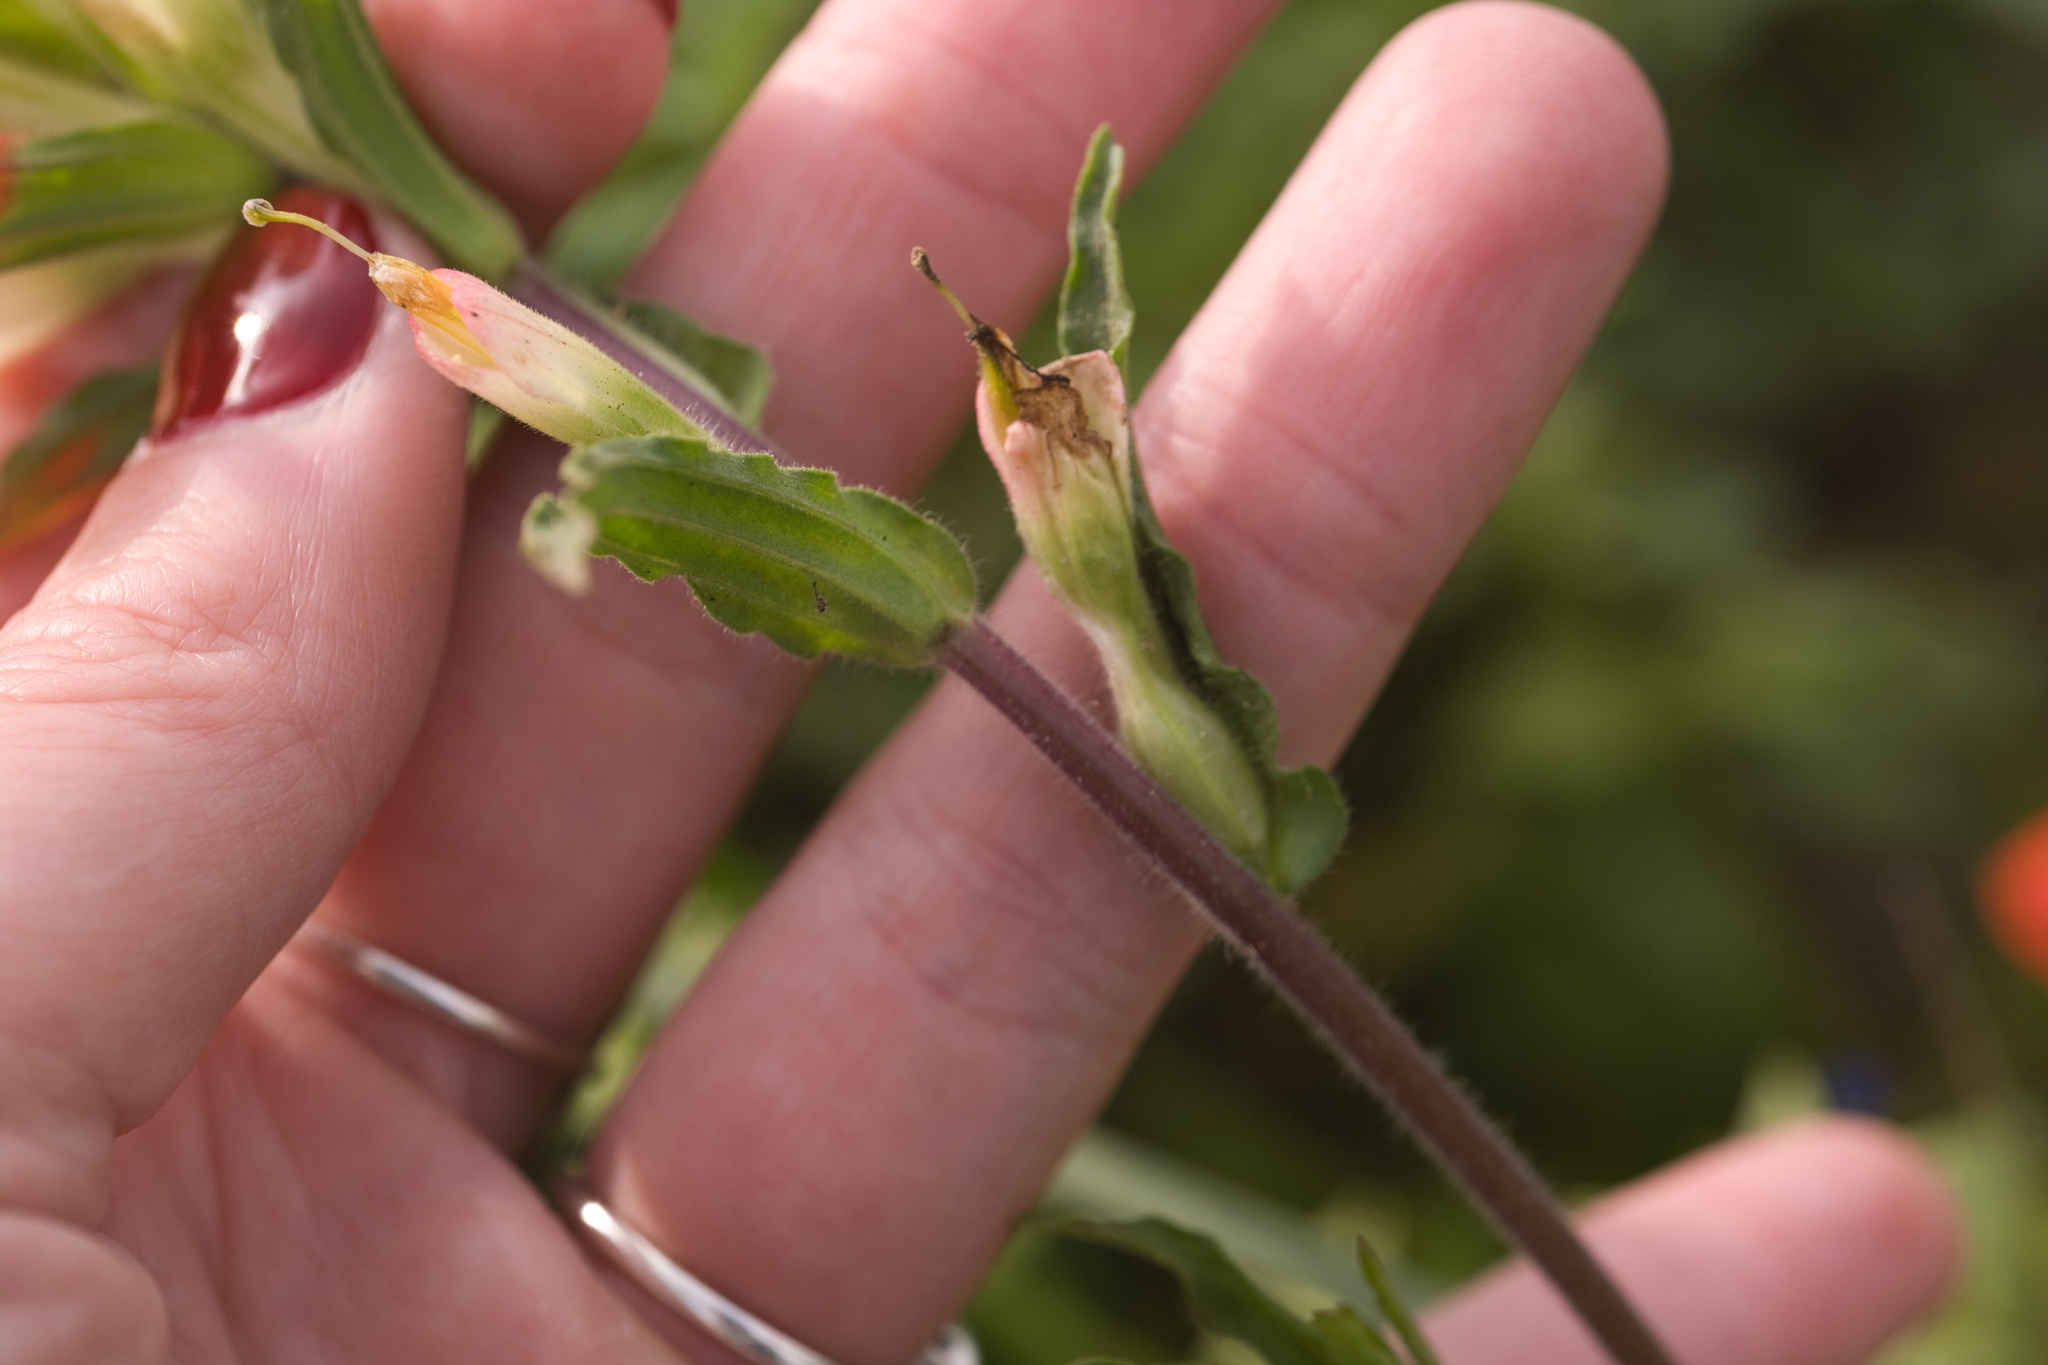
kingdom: Plantae
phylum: Tracheophyta
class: Magnoliopsida
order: Lamiales
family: Orobanchaceae
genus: Castilleja
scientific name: Castilleja indivisa
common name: Texas paintbrush
